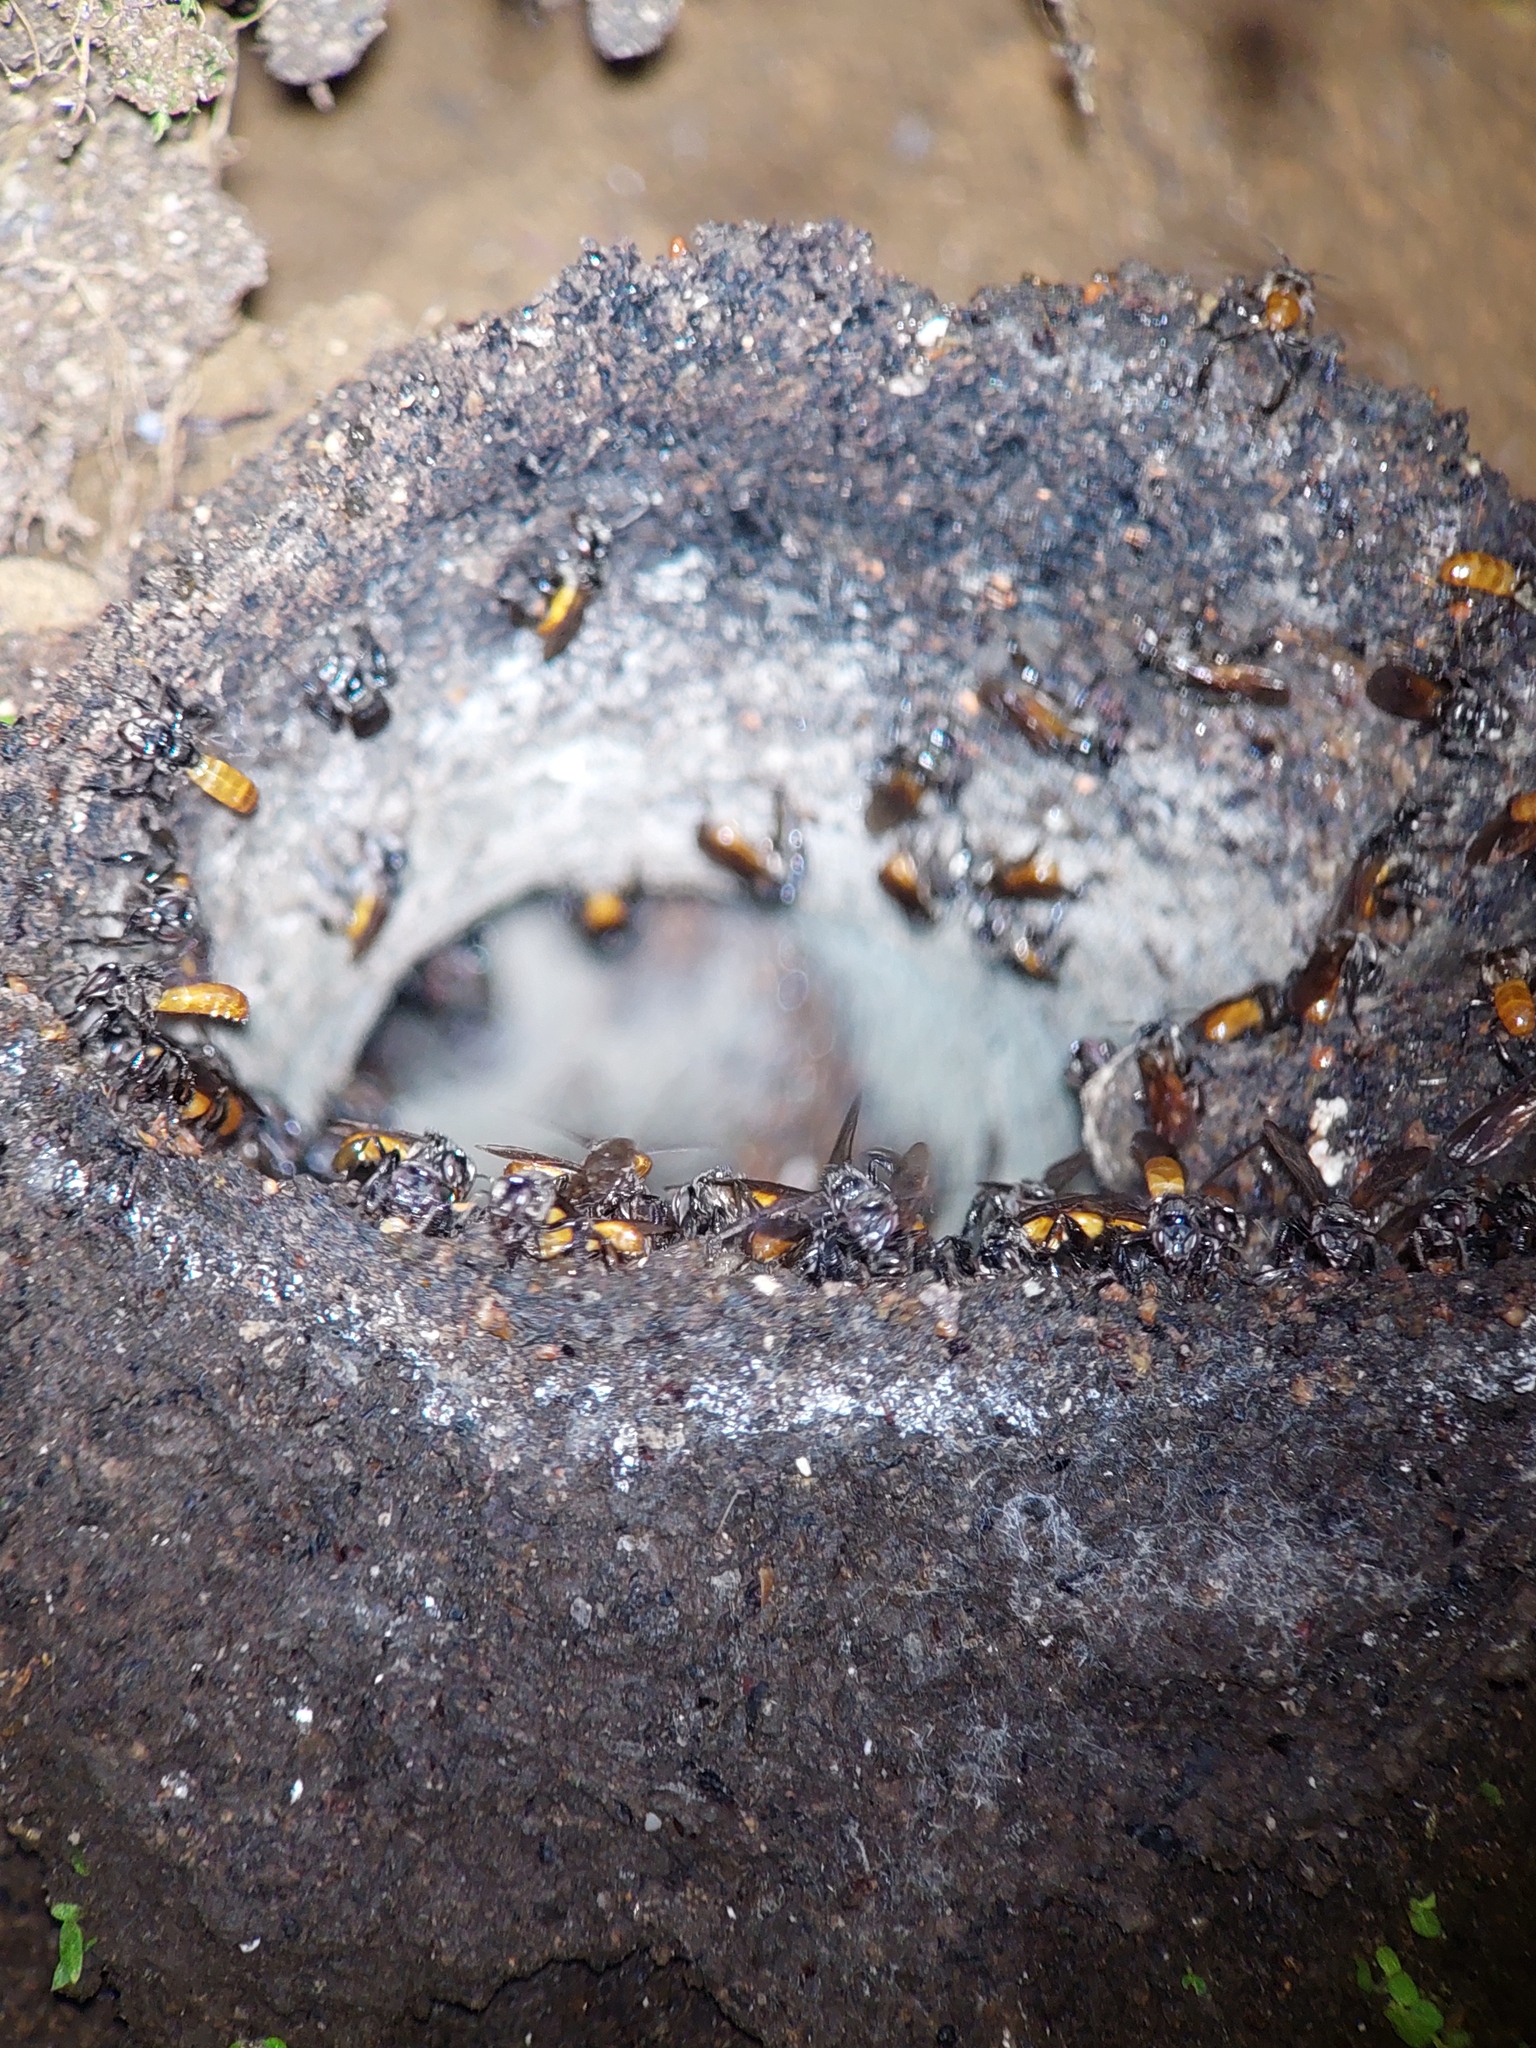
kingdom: Animalia
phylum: Arthropoda
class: Insecta
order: Hymenoptera
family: Apidae
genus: Trigona
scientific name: Trigona fulviventris
